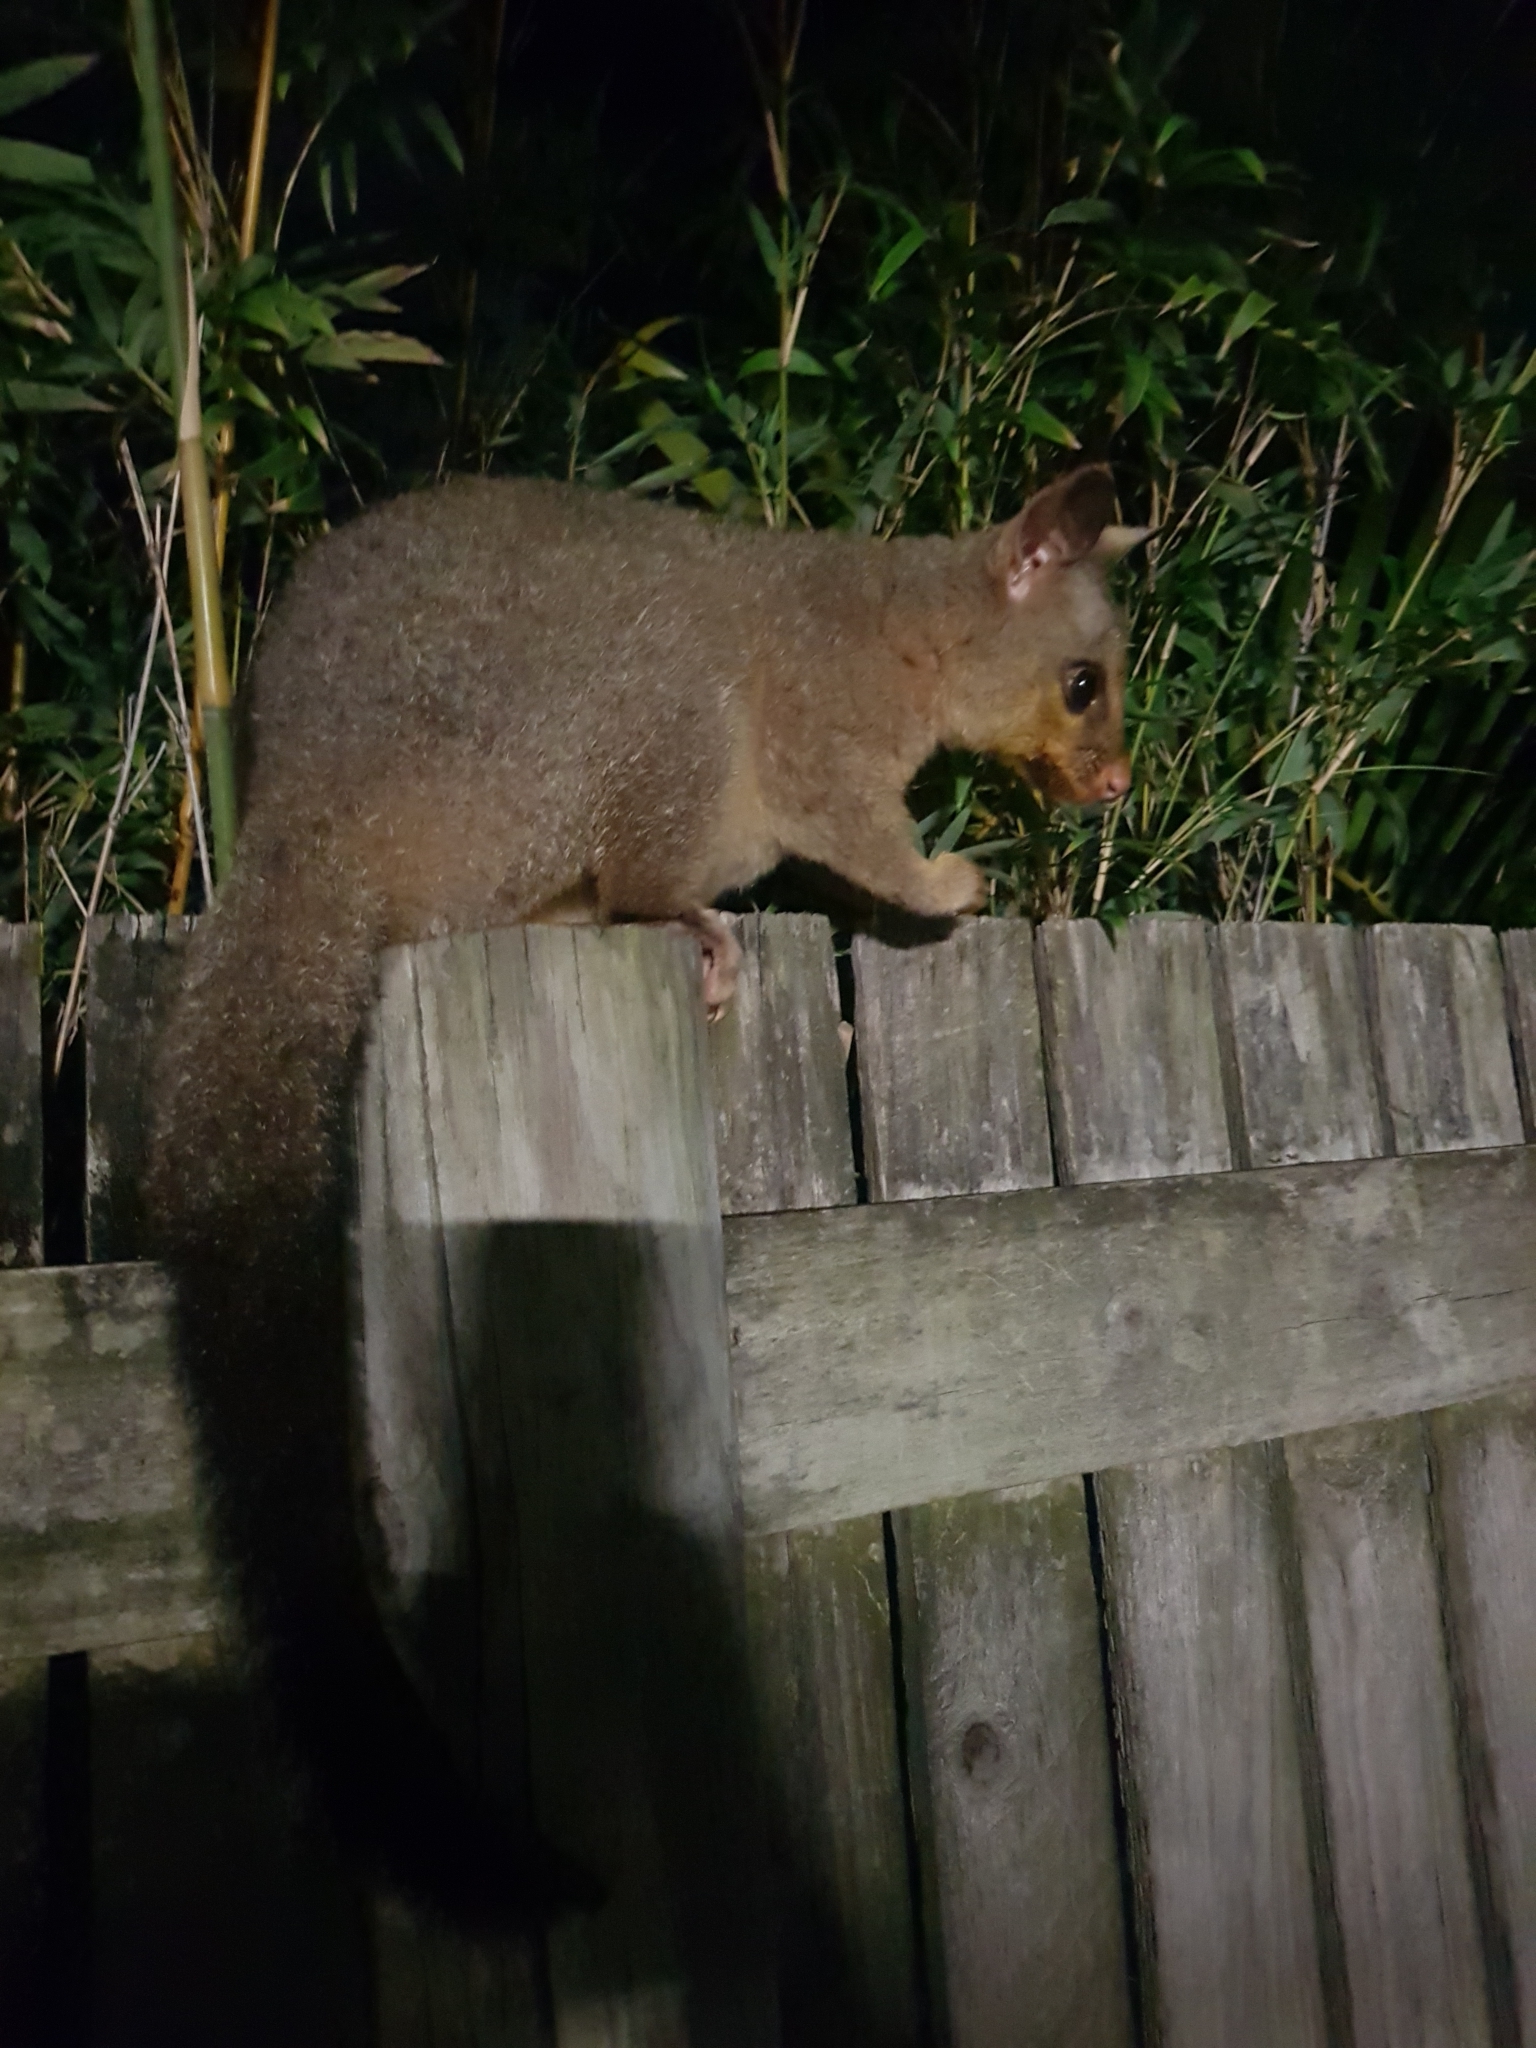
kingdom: Animalia
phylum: Chordata
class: Mammalia
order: Diprotodontia
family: Phalangeridae
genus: Trichosurus
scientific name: Trichosurus vulpecula
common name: Common brushtail
